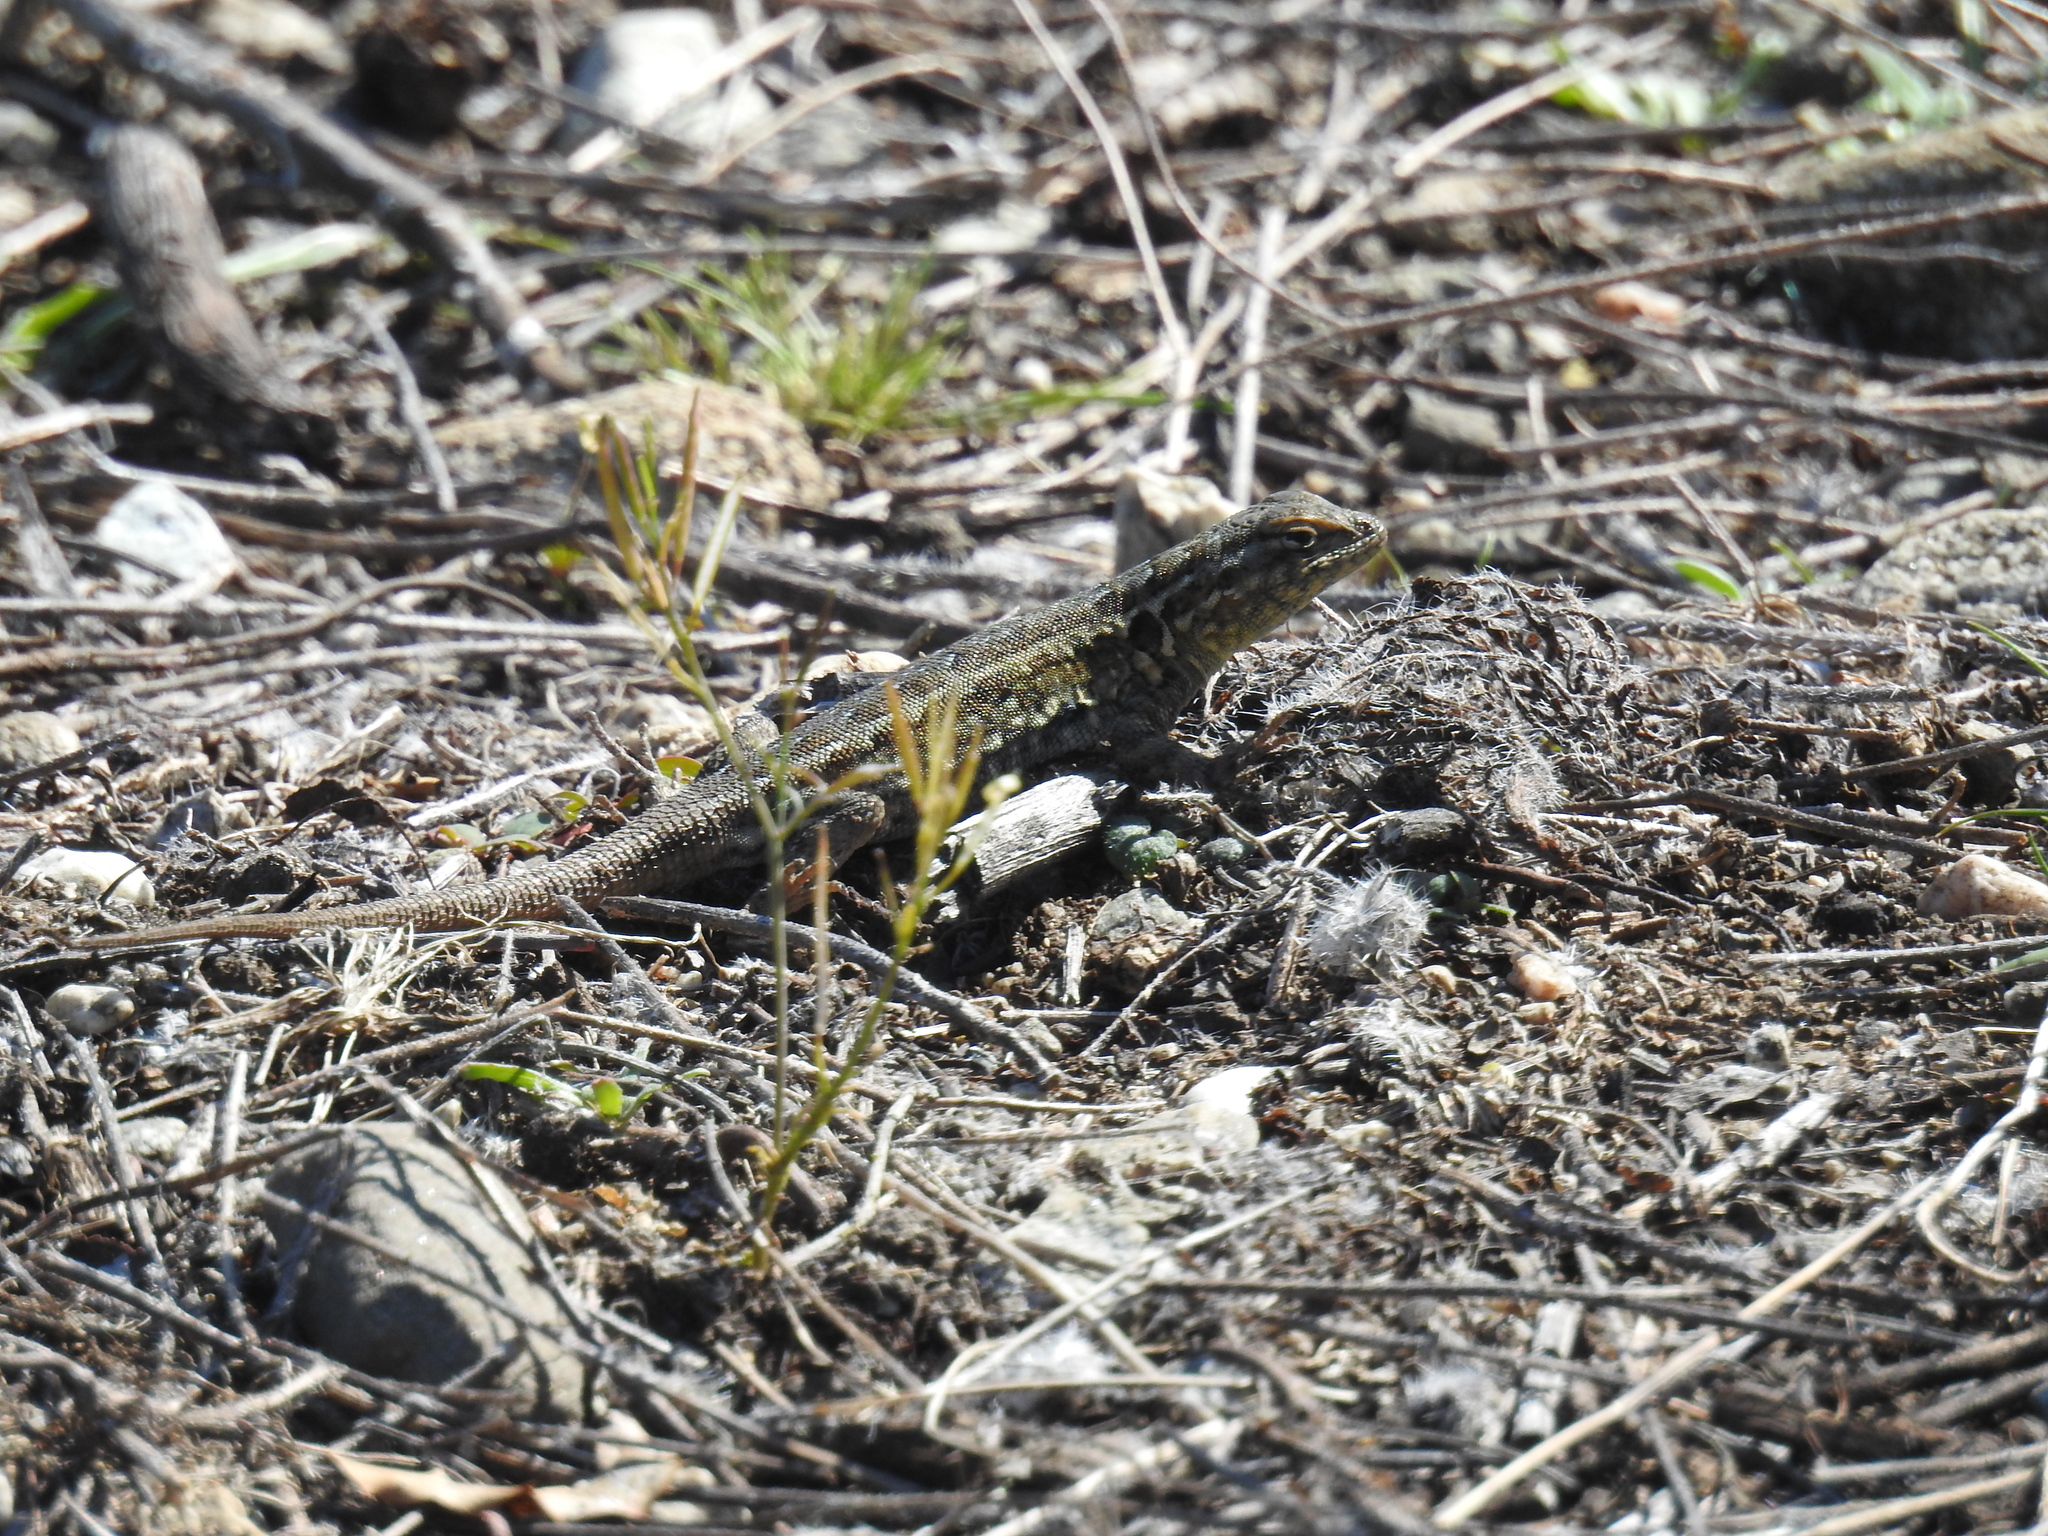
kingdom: Animalia
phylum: Chordata
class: Squamata
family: Phrynosomatidae
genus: Uta
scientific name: Uta stansburiana
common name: Side-blotched lizard
